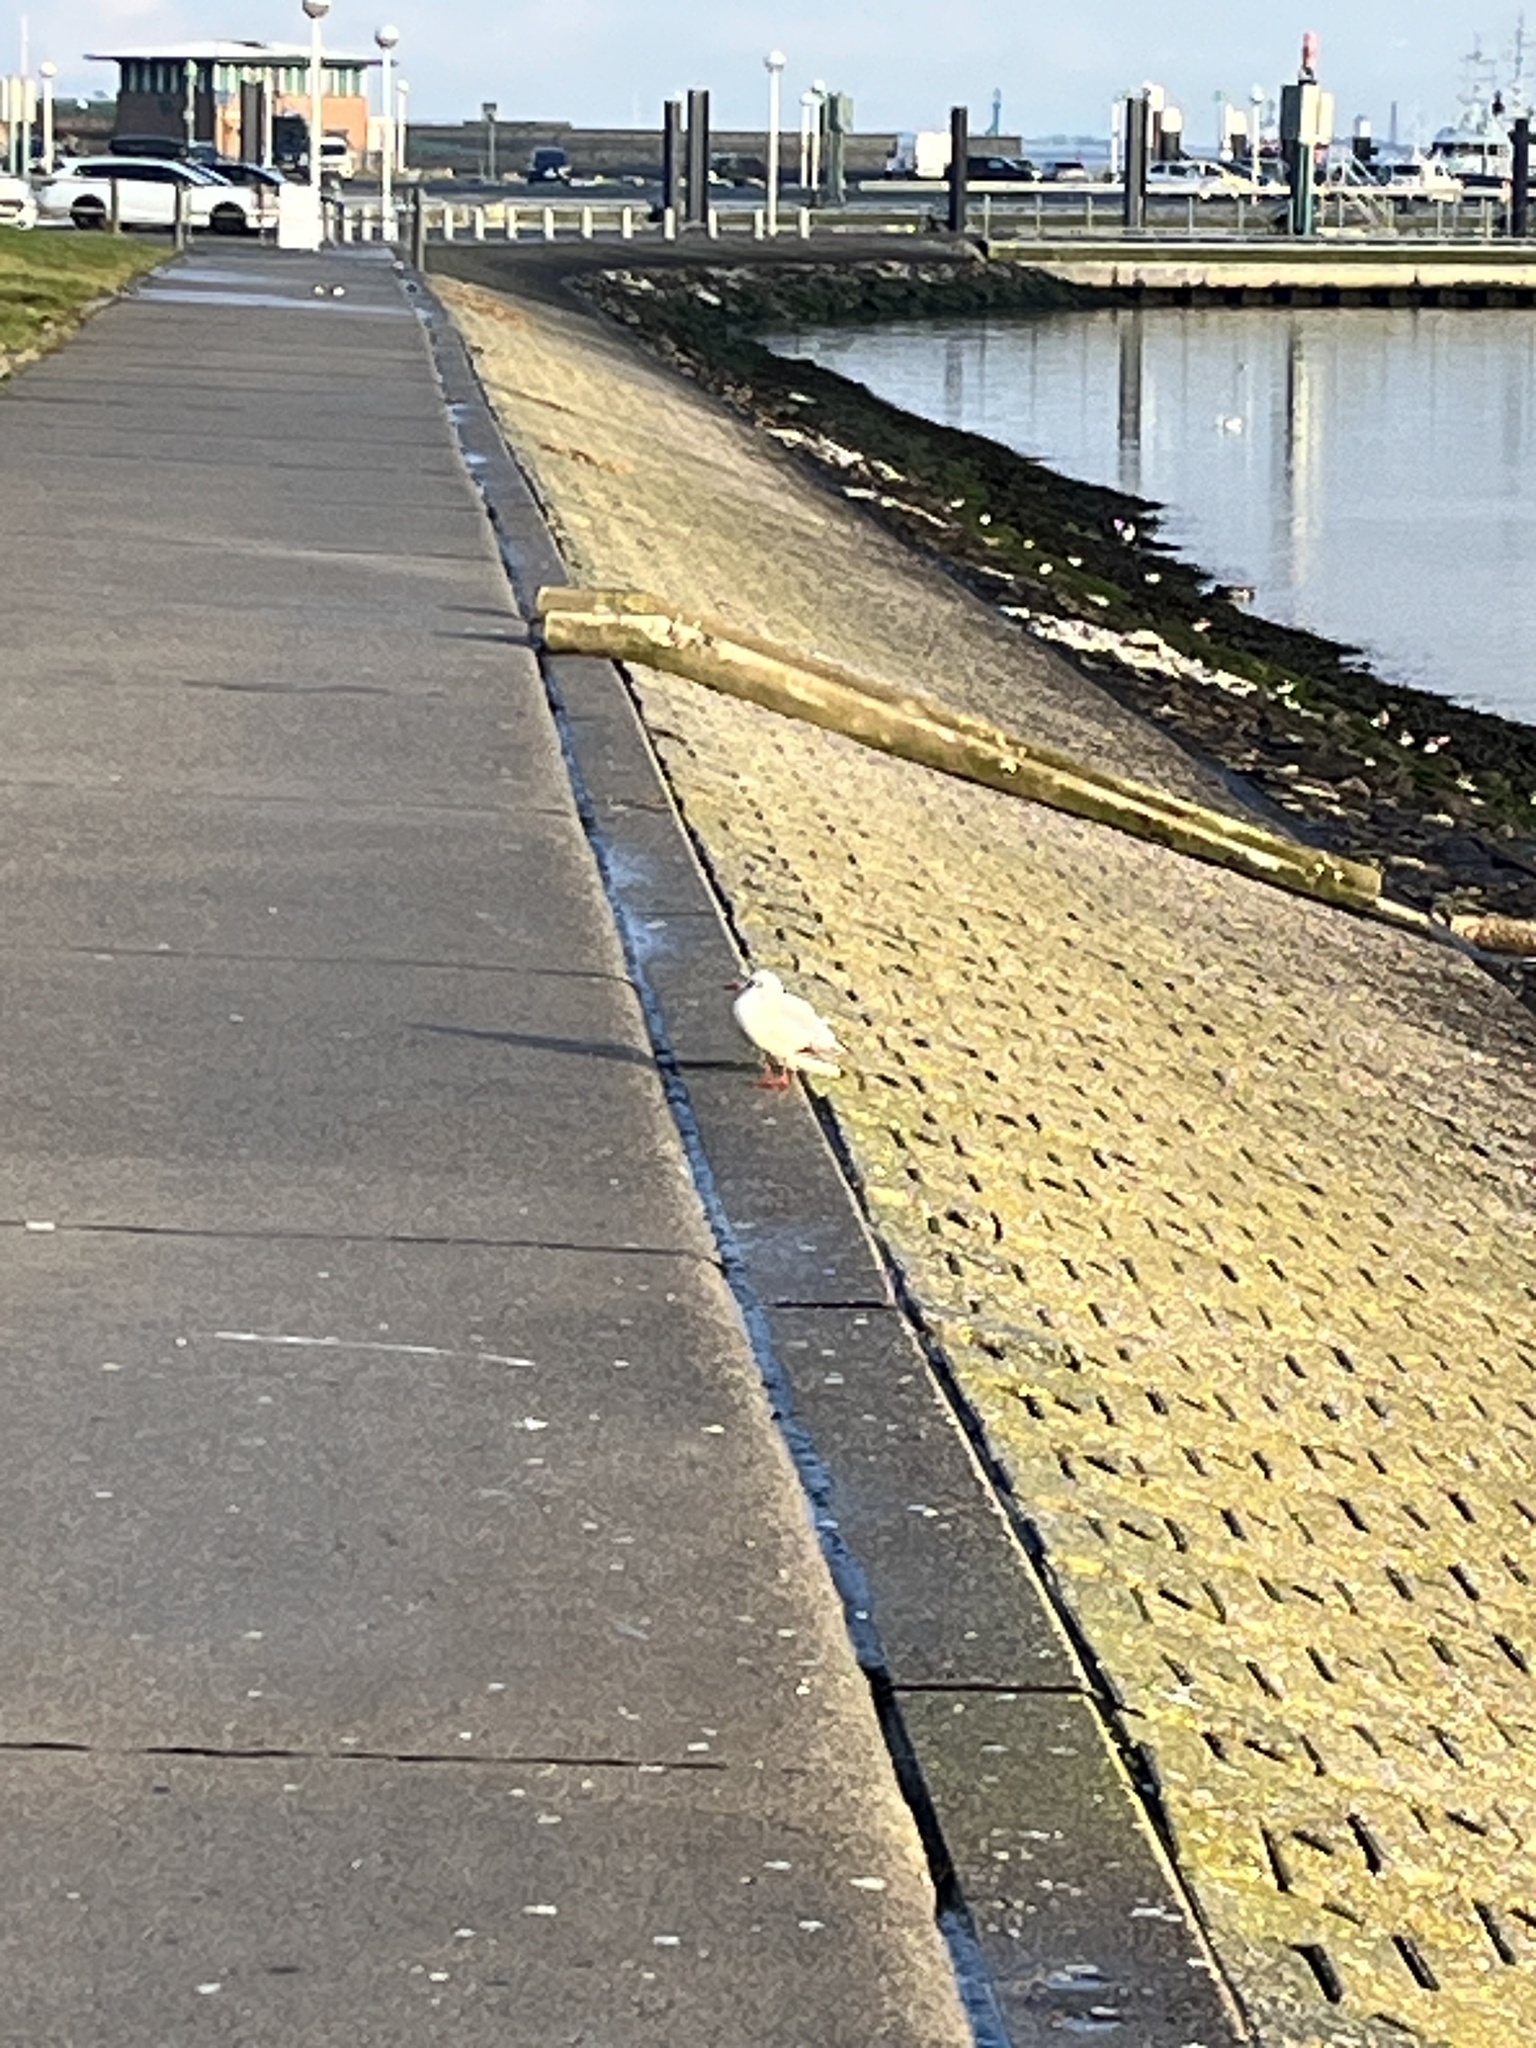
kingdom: Animalia
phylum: Chordata
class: Aves
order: Charadriiformes
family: Laridae
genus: Chroicocephalus
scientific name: Chroicocephalus ridibundus
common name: Black-headed gull
